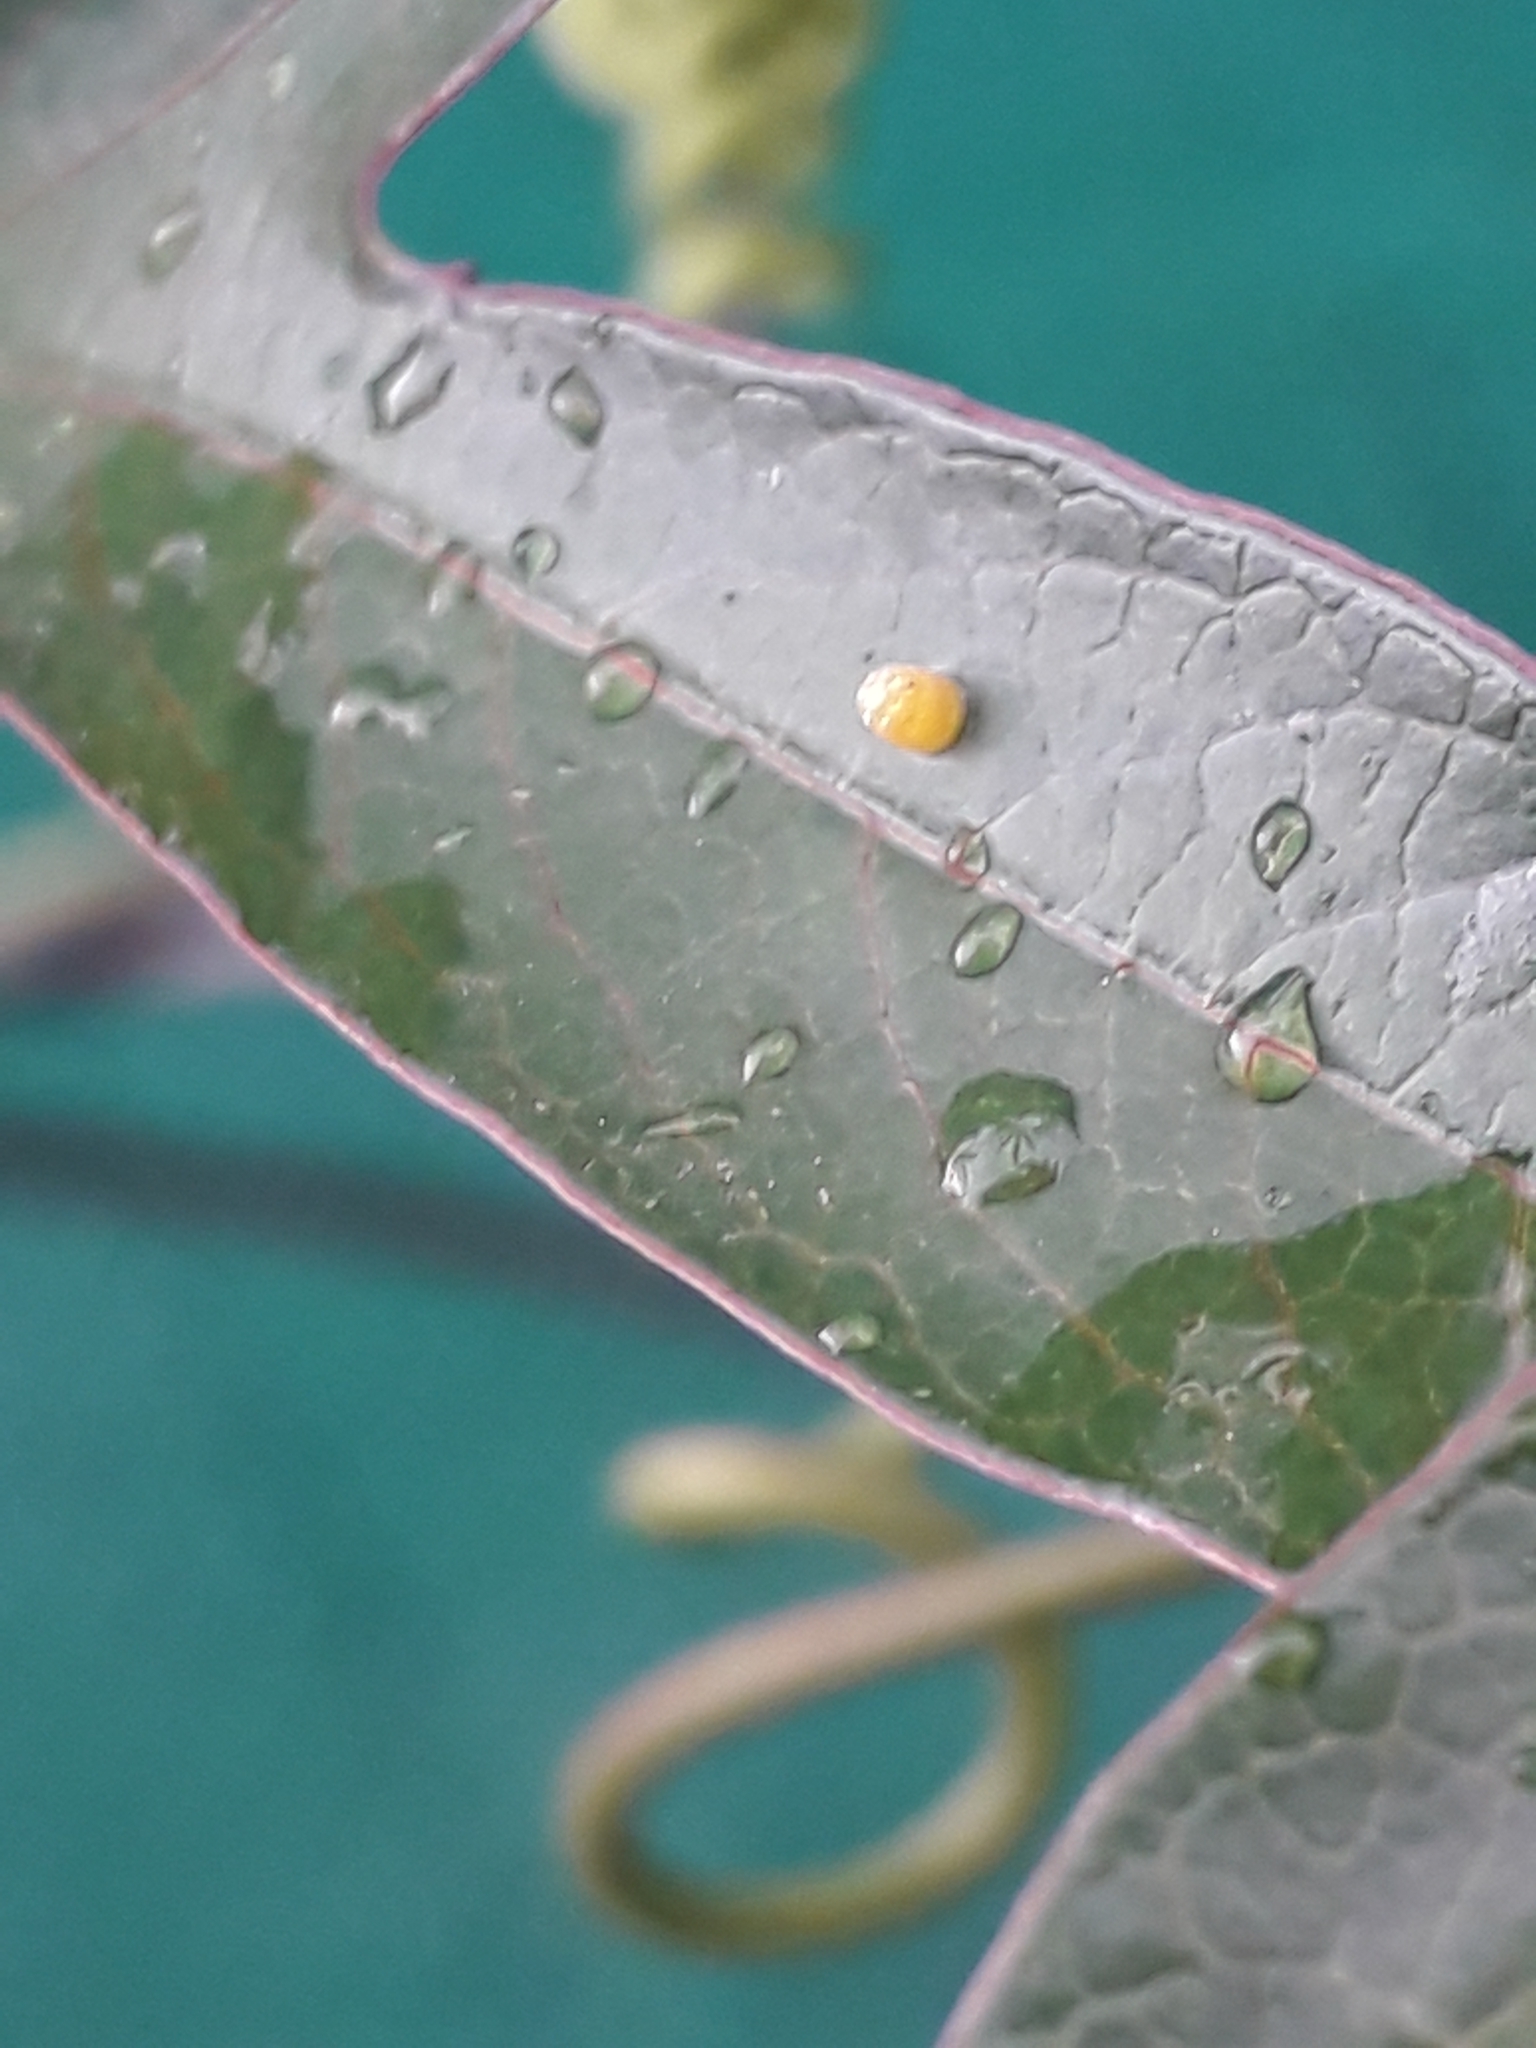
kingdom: Animalia
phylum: Arthropoda
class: Insecta
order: Lepidoptera
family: Nymphalidae
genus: Dione
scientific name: Dione vanillae
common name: Gulf fritillary
